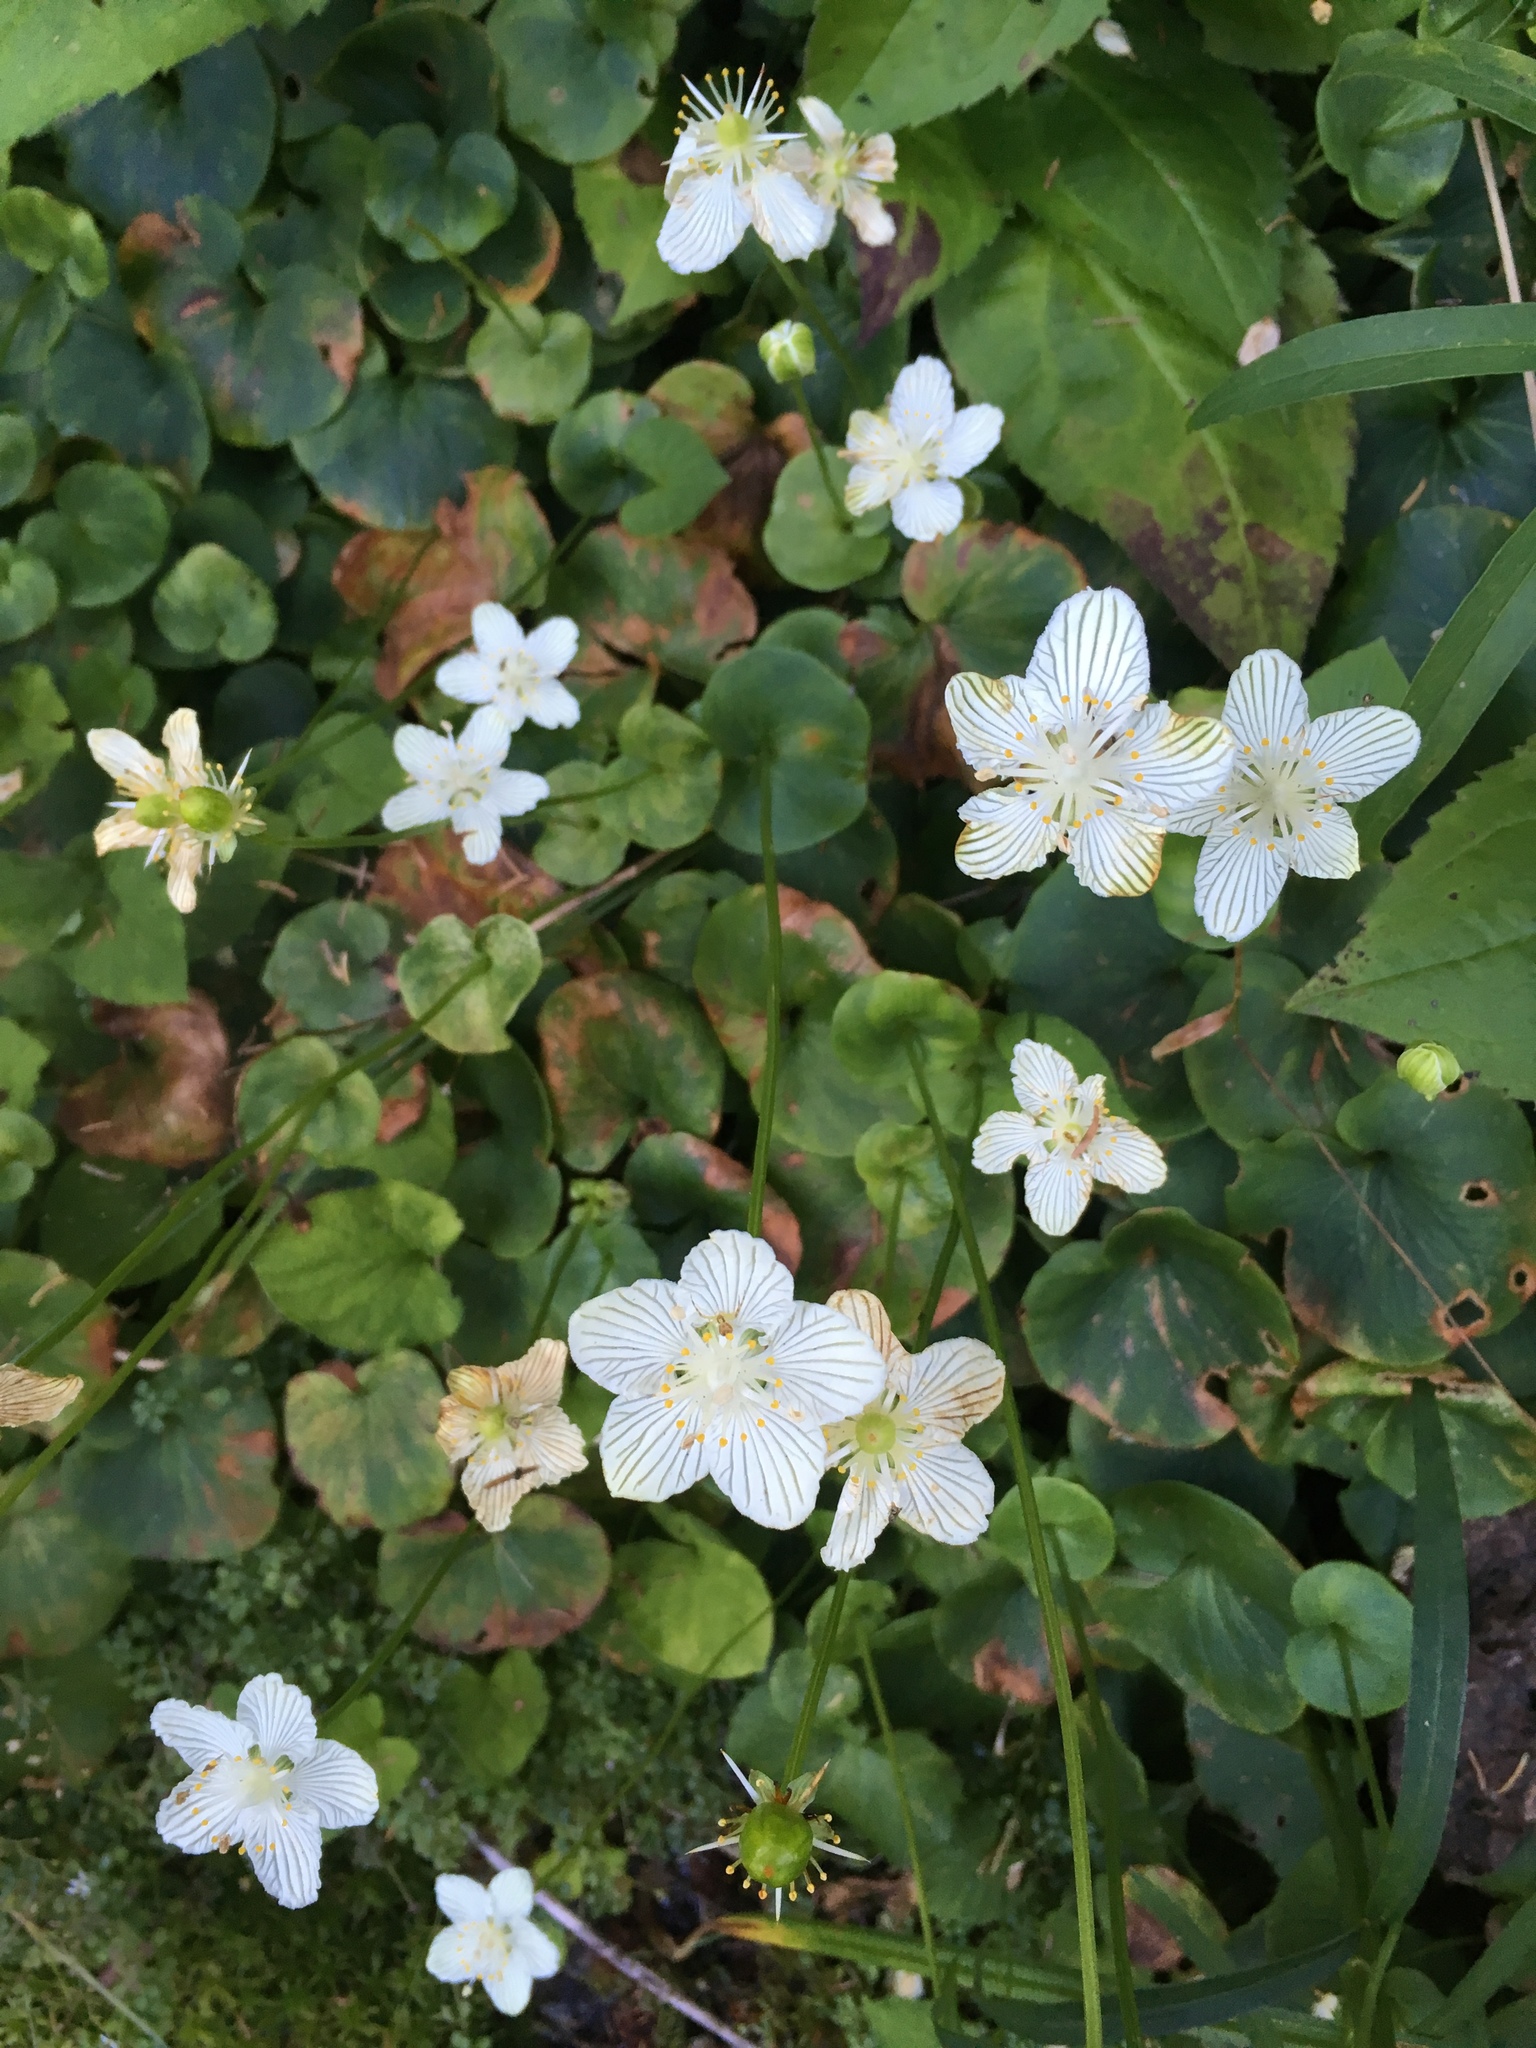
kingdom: Plantae
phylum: Tracheophyta
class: Magnoliopsida
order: Celastrales
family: Parnassiaceae
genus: Parnassia
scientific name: Parnassia asarifolia
